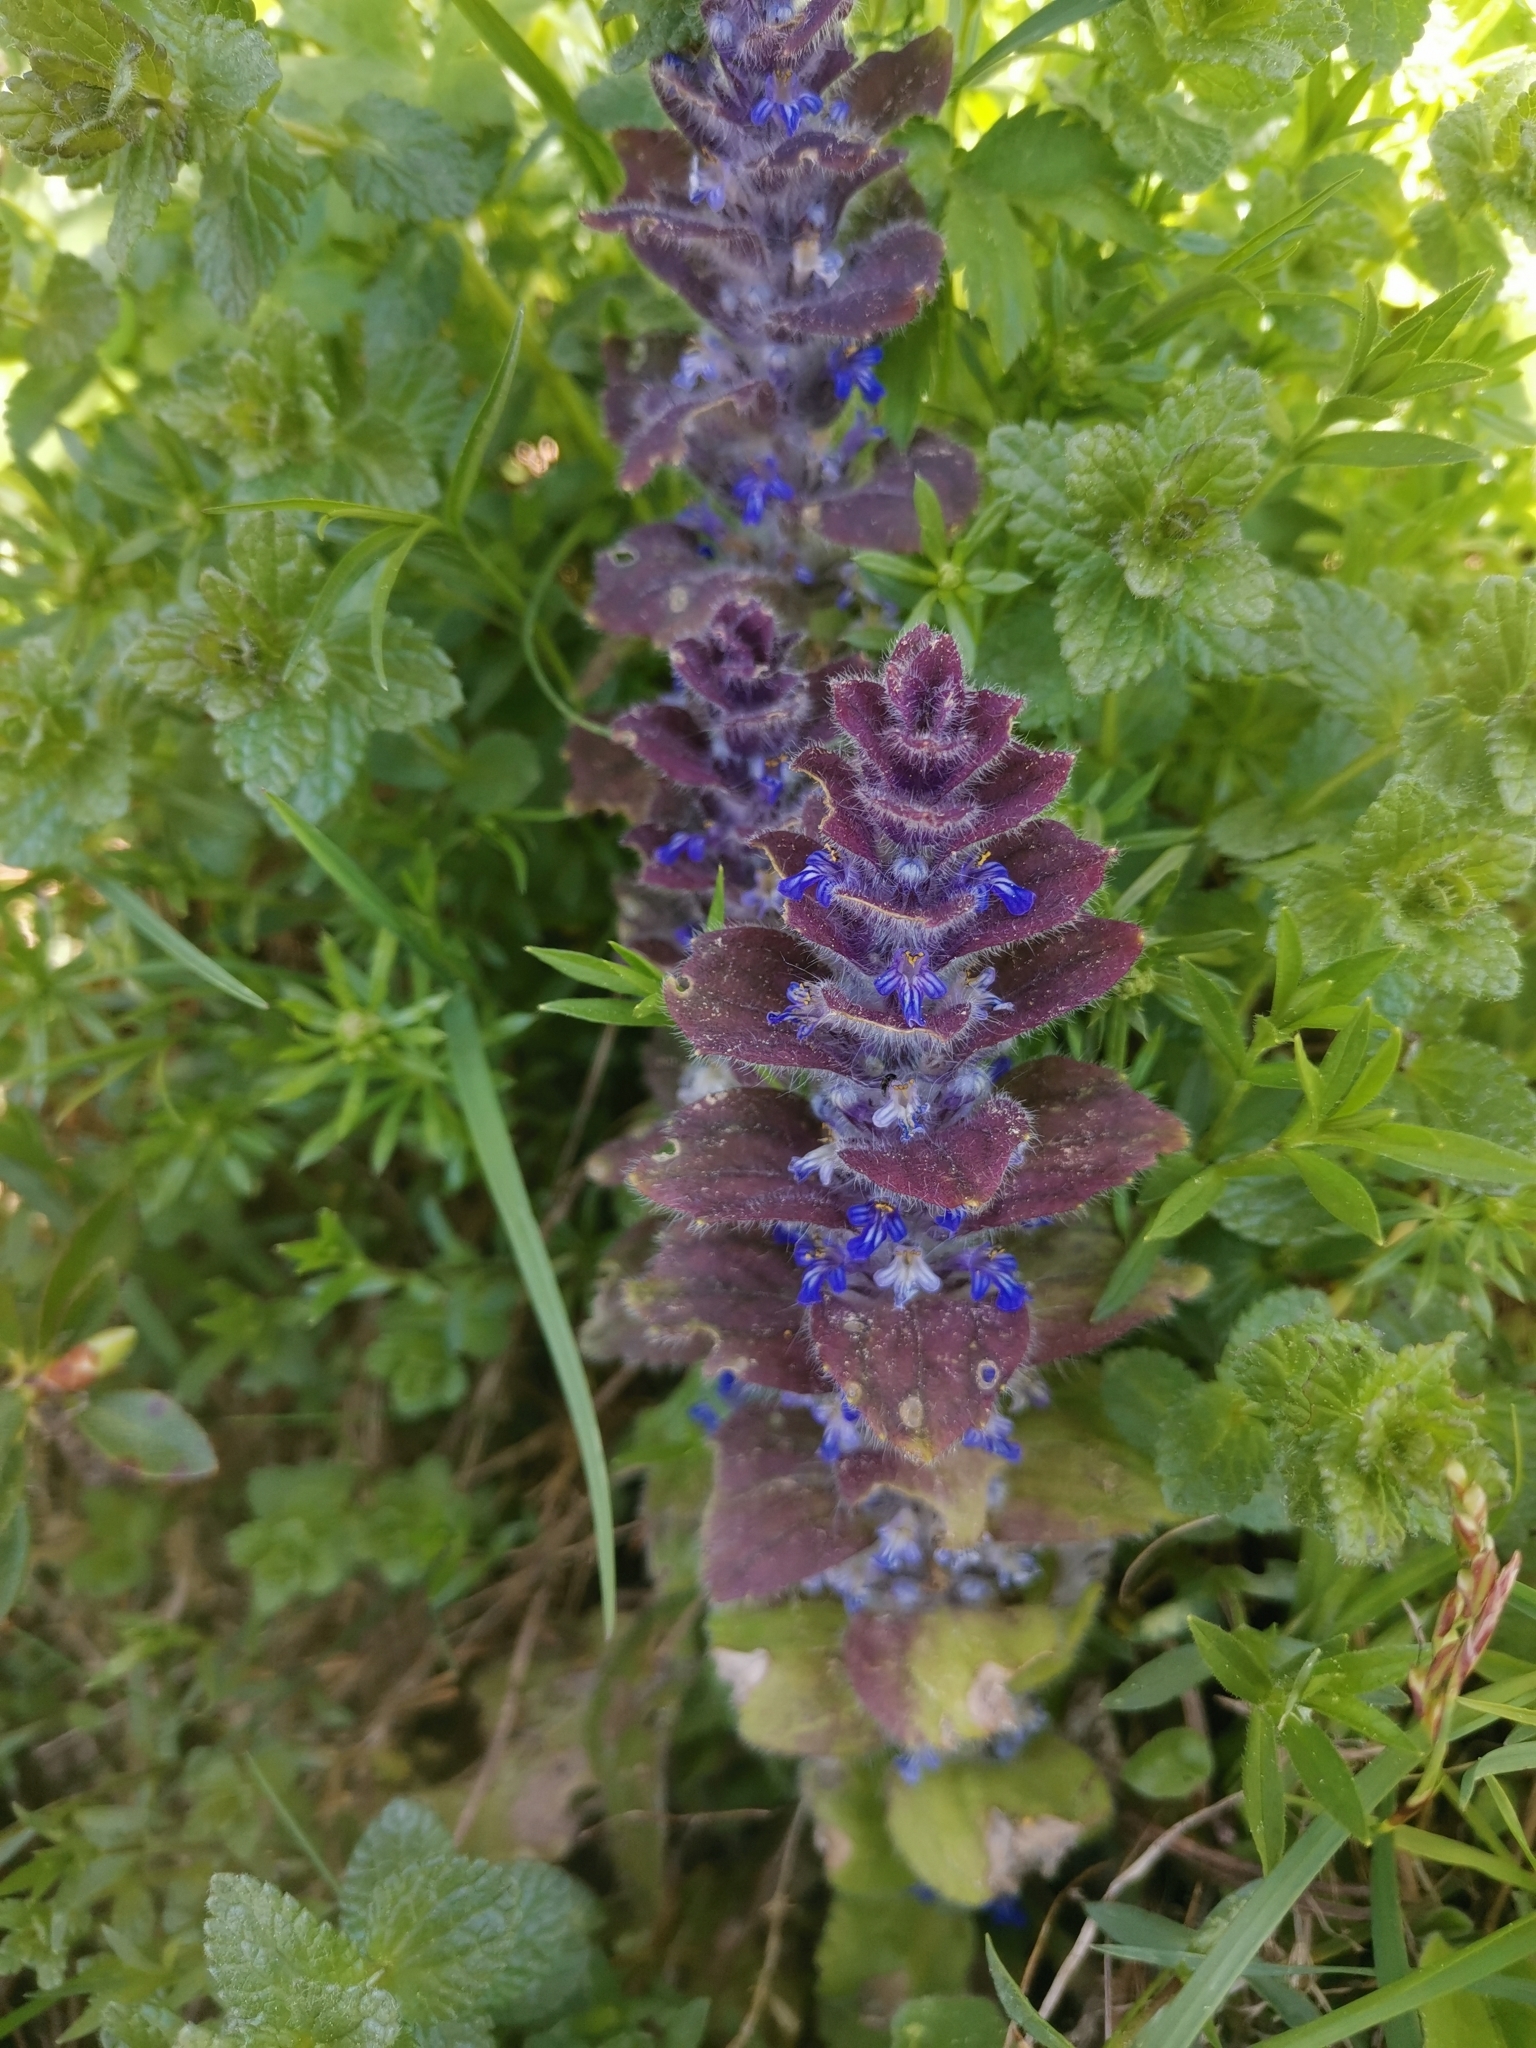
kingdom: Plantae
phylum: Tracheophyta
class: Magnoliopsida
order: Lamiales
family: Lamiaceae
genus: Ajuga
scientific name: Ajuga pyramidalis
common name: Pyramid bugle
